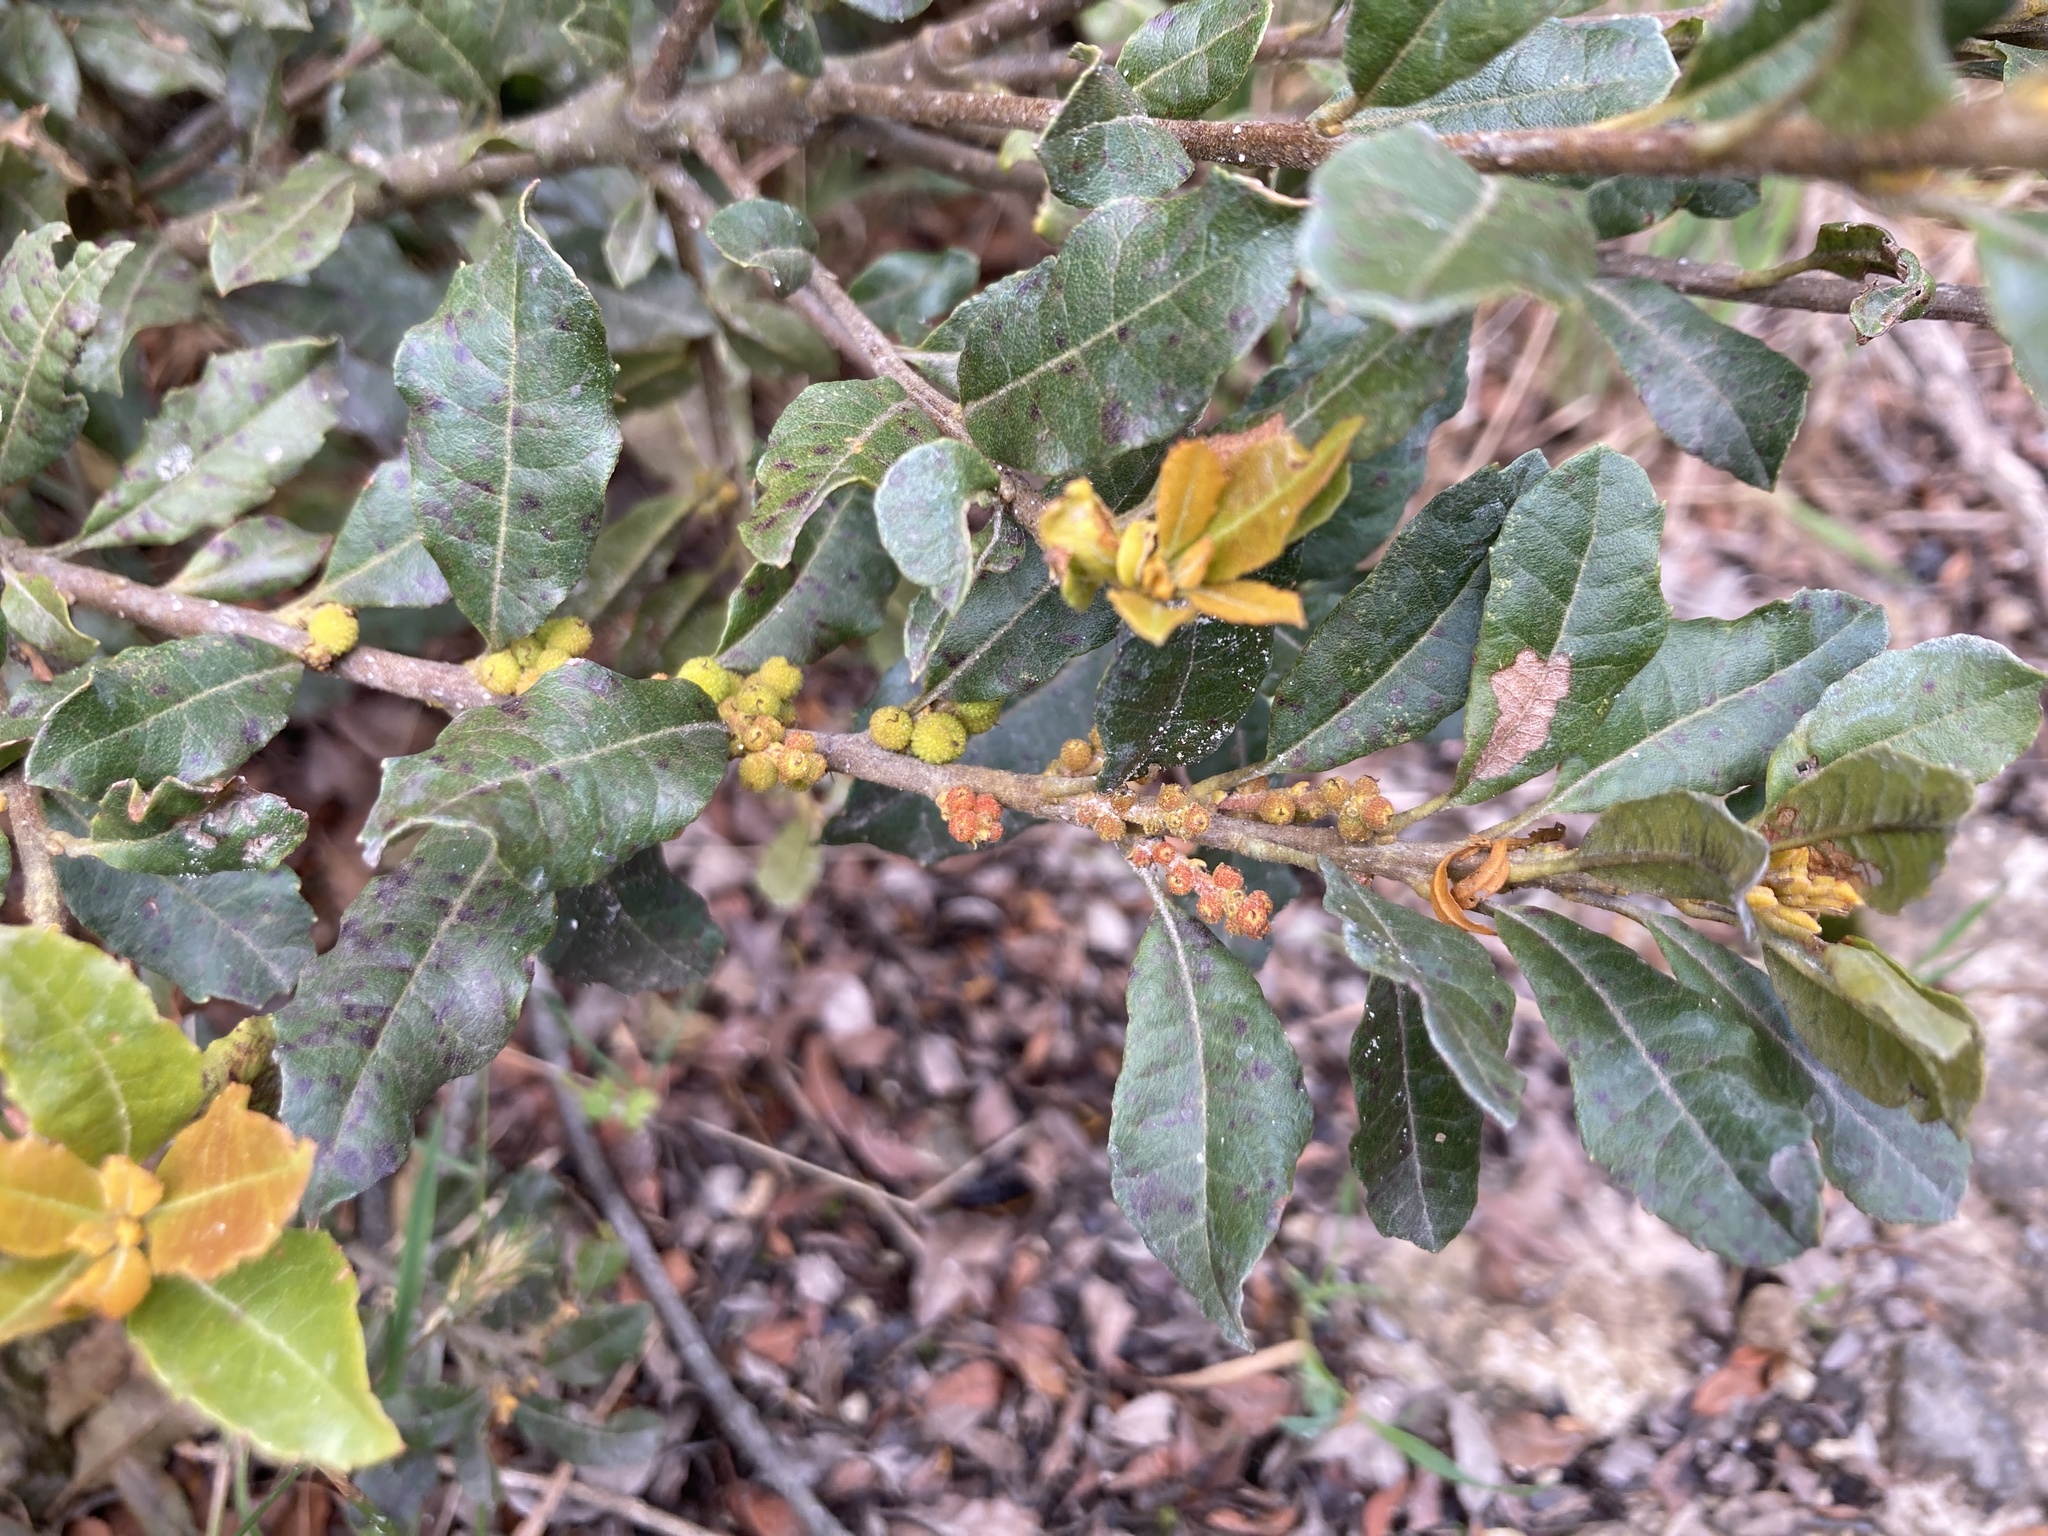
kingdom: Plantae
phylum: Tracheophyta
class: Magnoliopsida
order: Fagales
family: Myricaceae
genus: Morella
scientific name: Morella parvifolia
